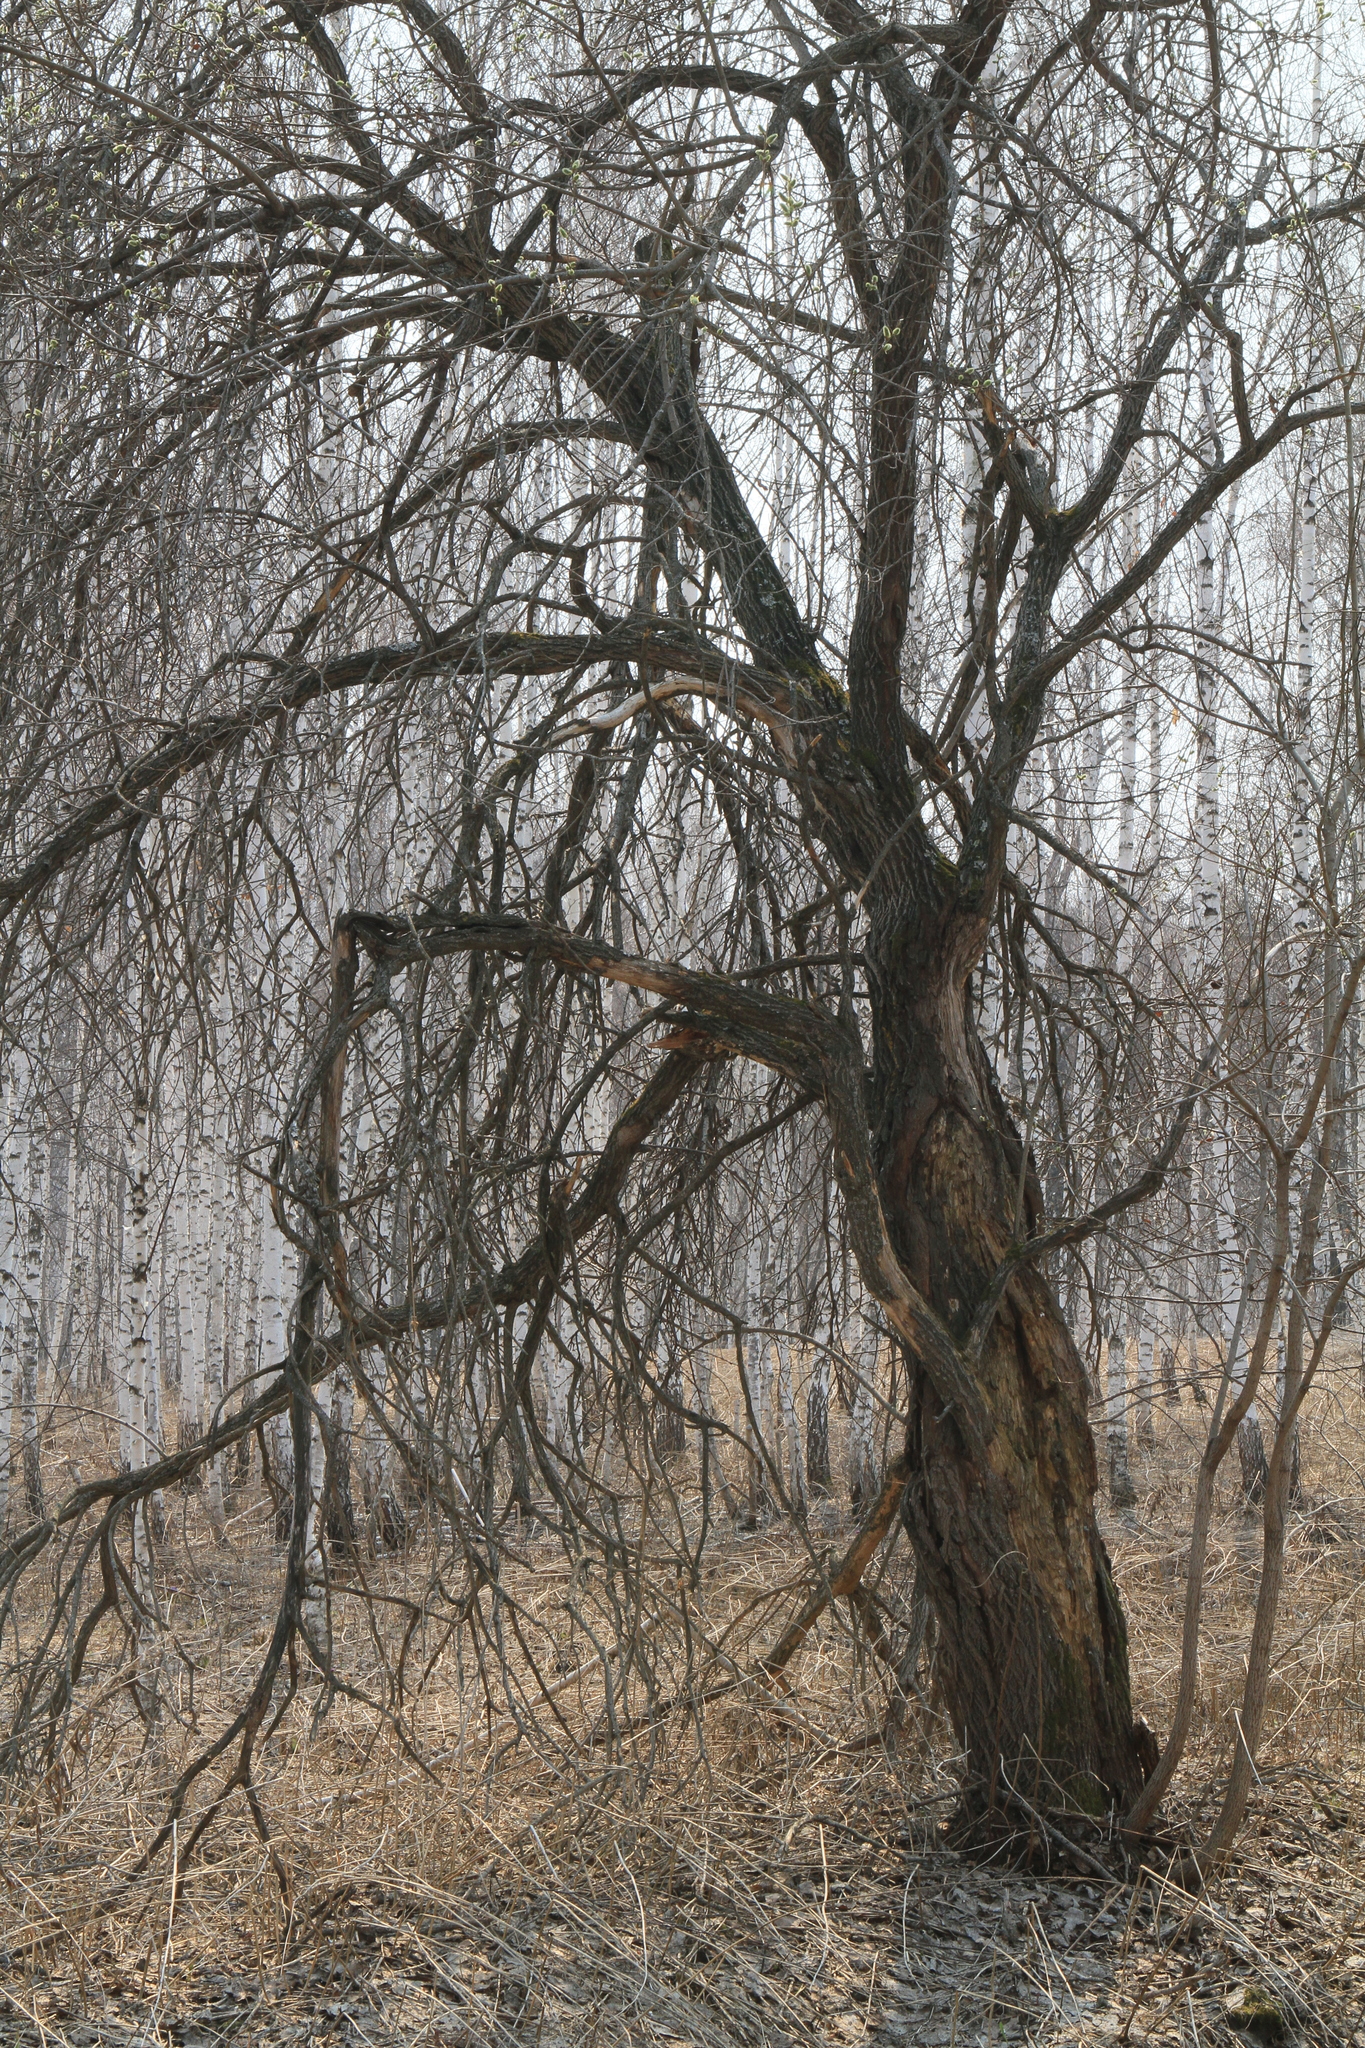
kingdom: Plantae
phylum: Tracheophyta
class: Magnoliopsida
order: Malpighiales
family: Salicaceae
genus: Salix
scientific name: Salix caprea
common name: Goat willow
